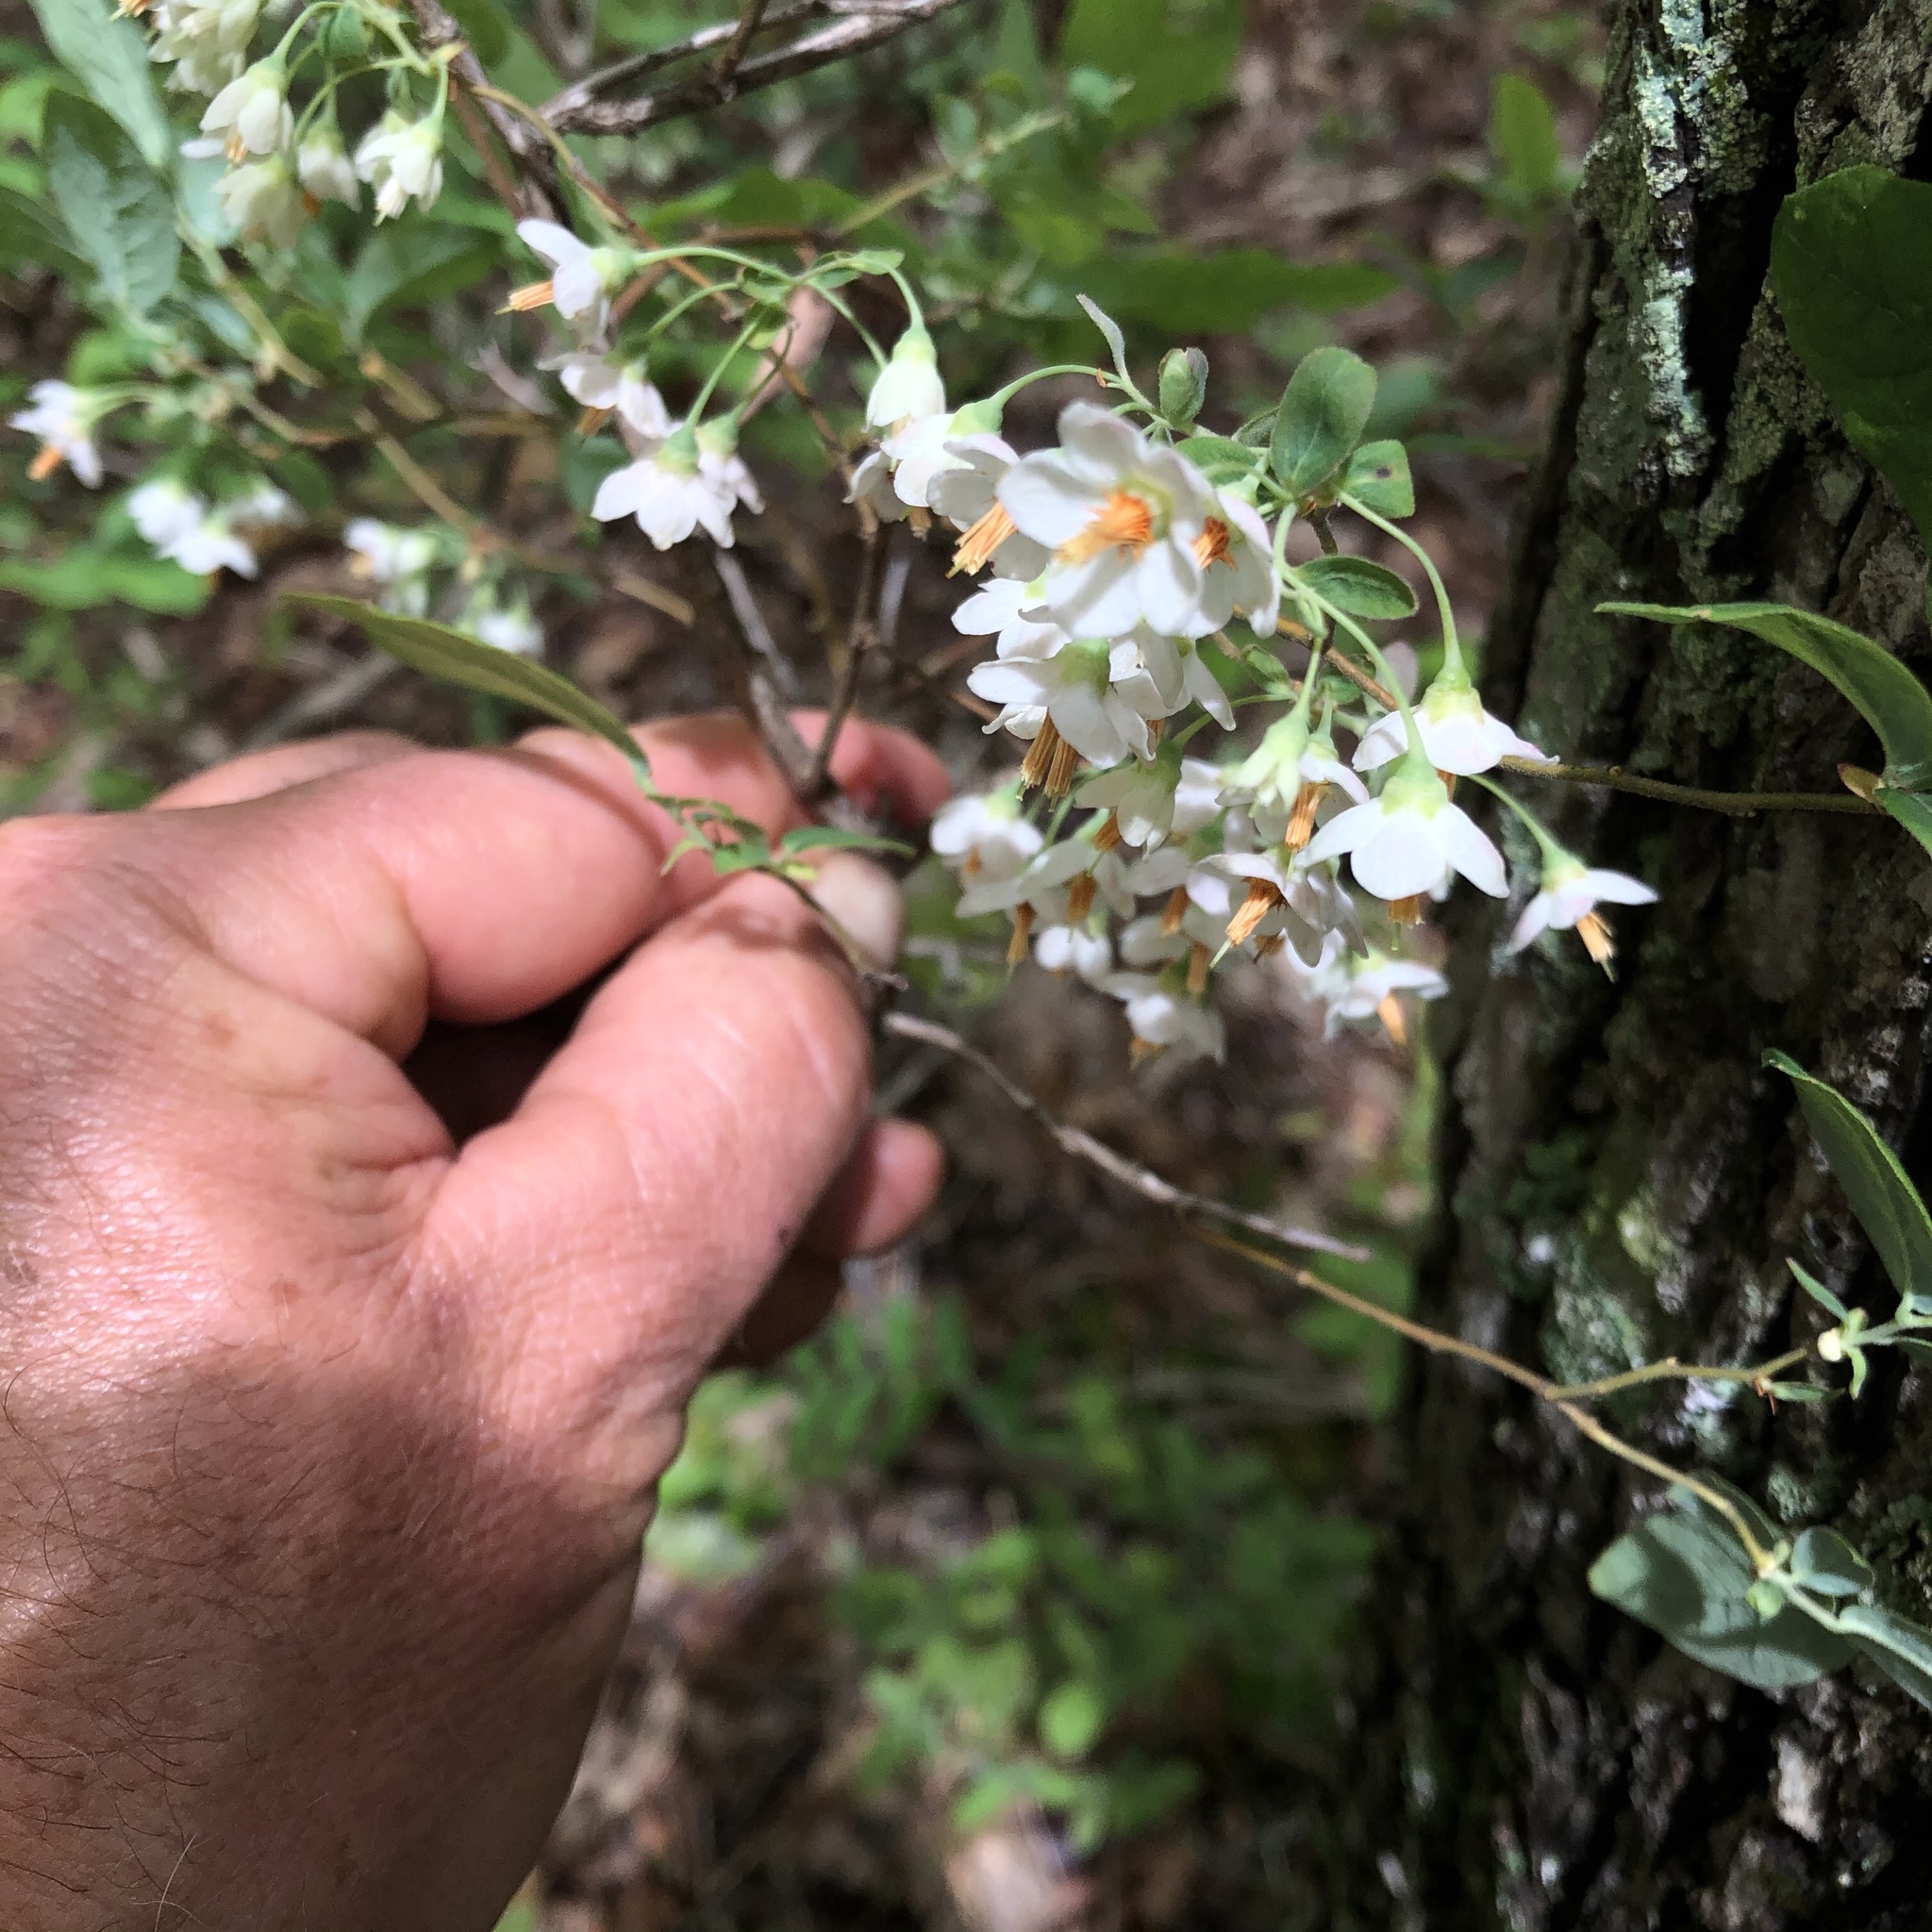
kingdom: Plantae
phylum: Tracheophyta
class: Magnoliopsida
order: Ericales
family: Ericaceae
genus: Vaccinium
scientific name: Vaccinium stamineum
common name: Deerberry
